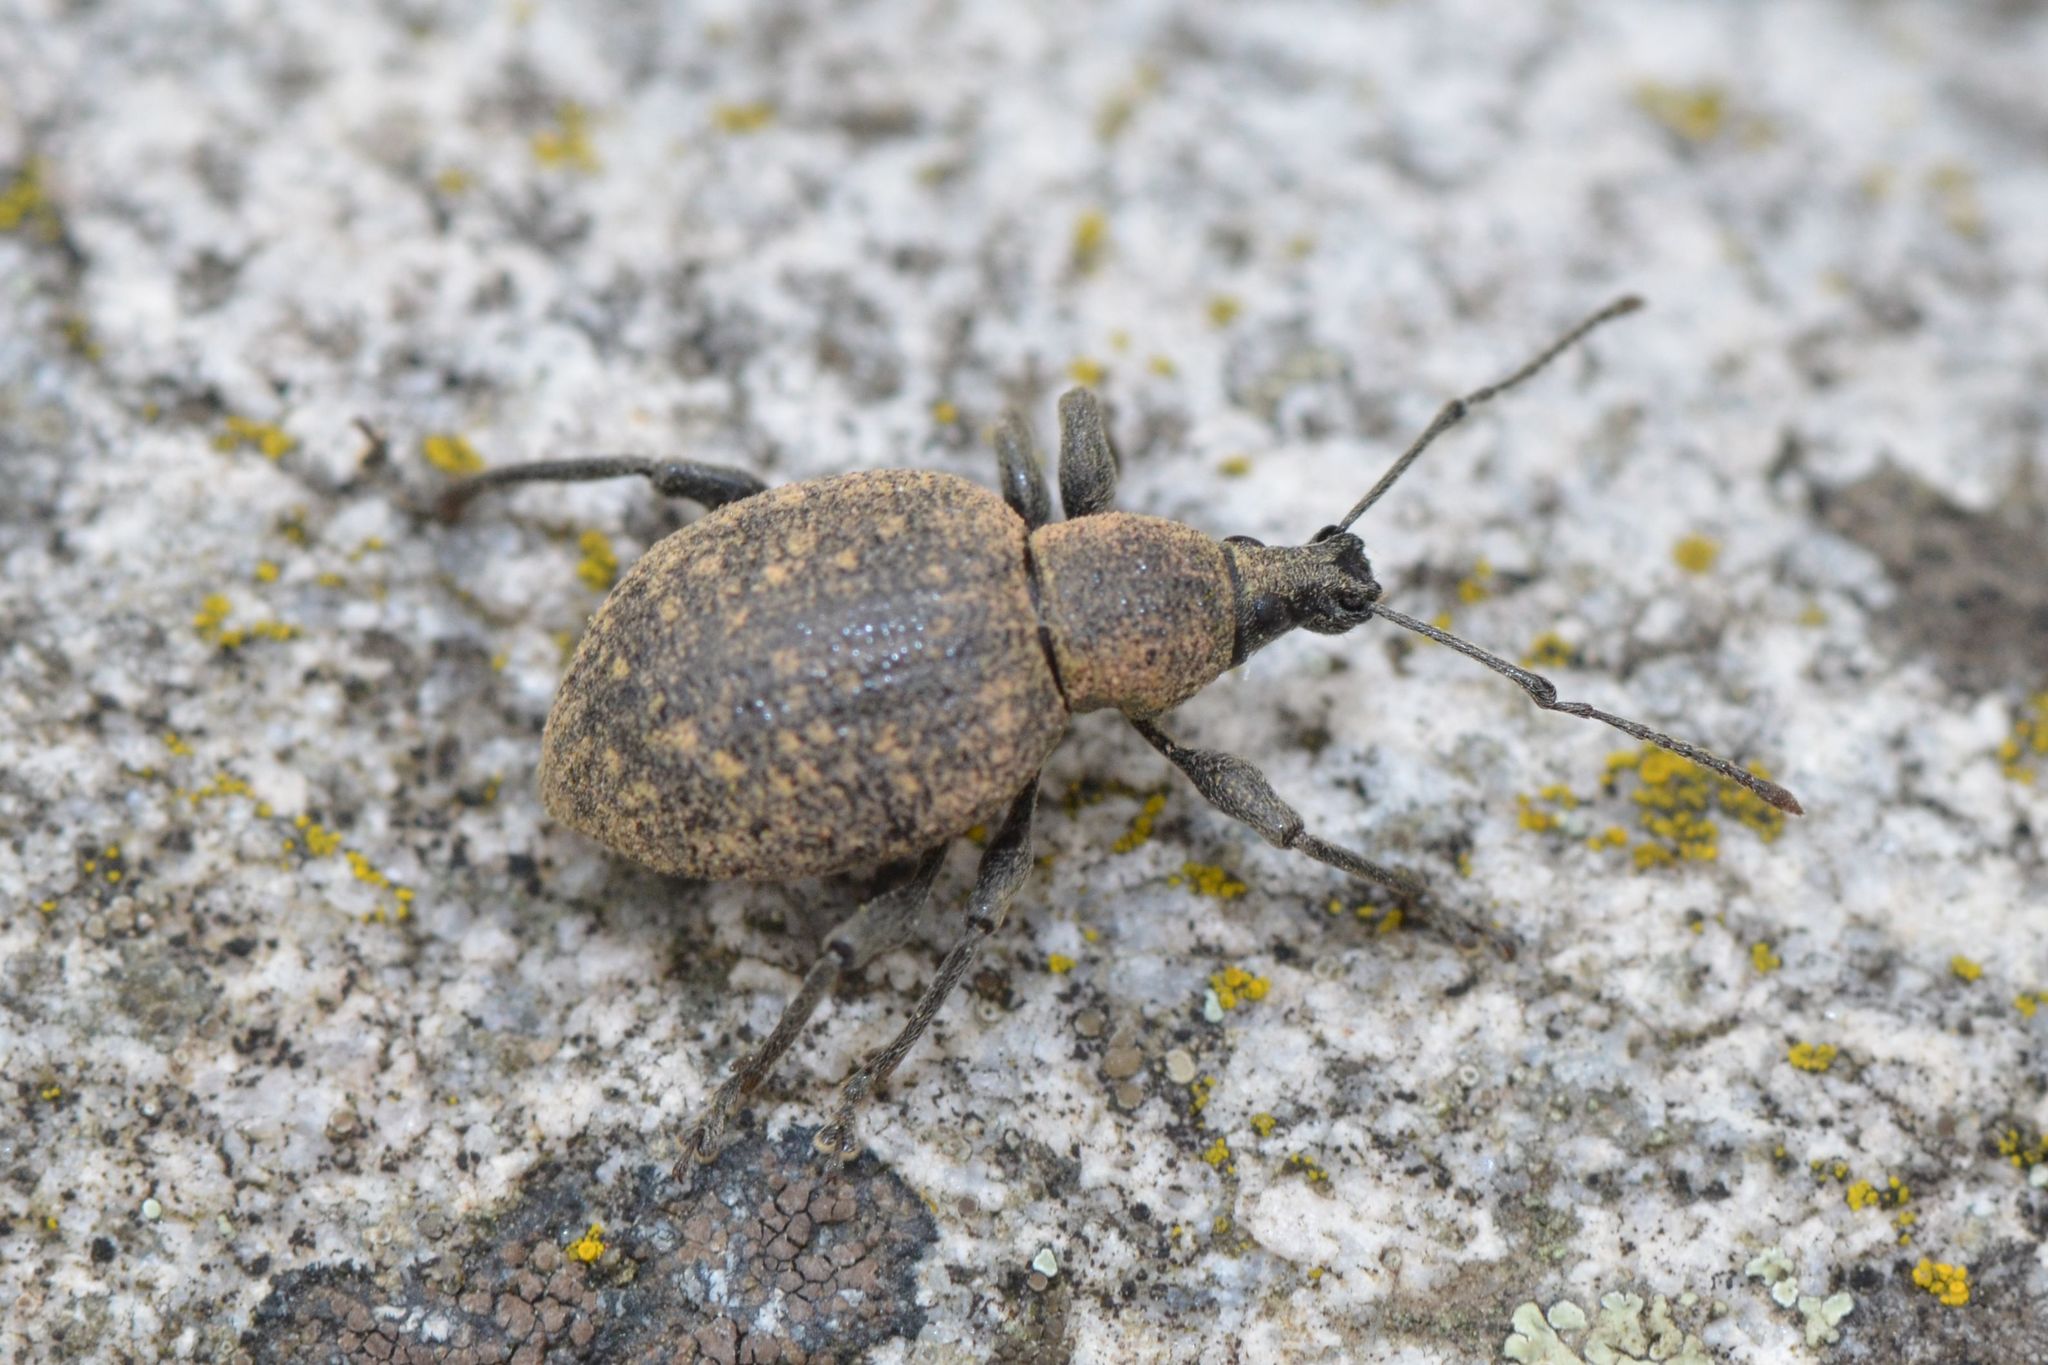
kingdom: Animalia
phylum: Arthropoda
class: Insecta
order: Coleoptera
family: Curculionidae
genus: Otiorhynchus
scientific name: Otiorhynchus armadillo
